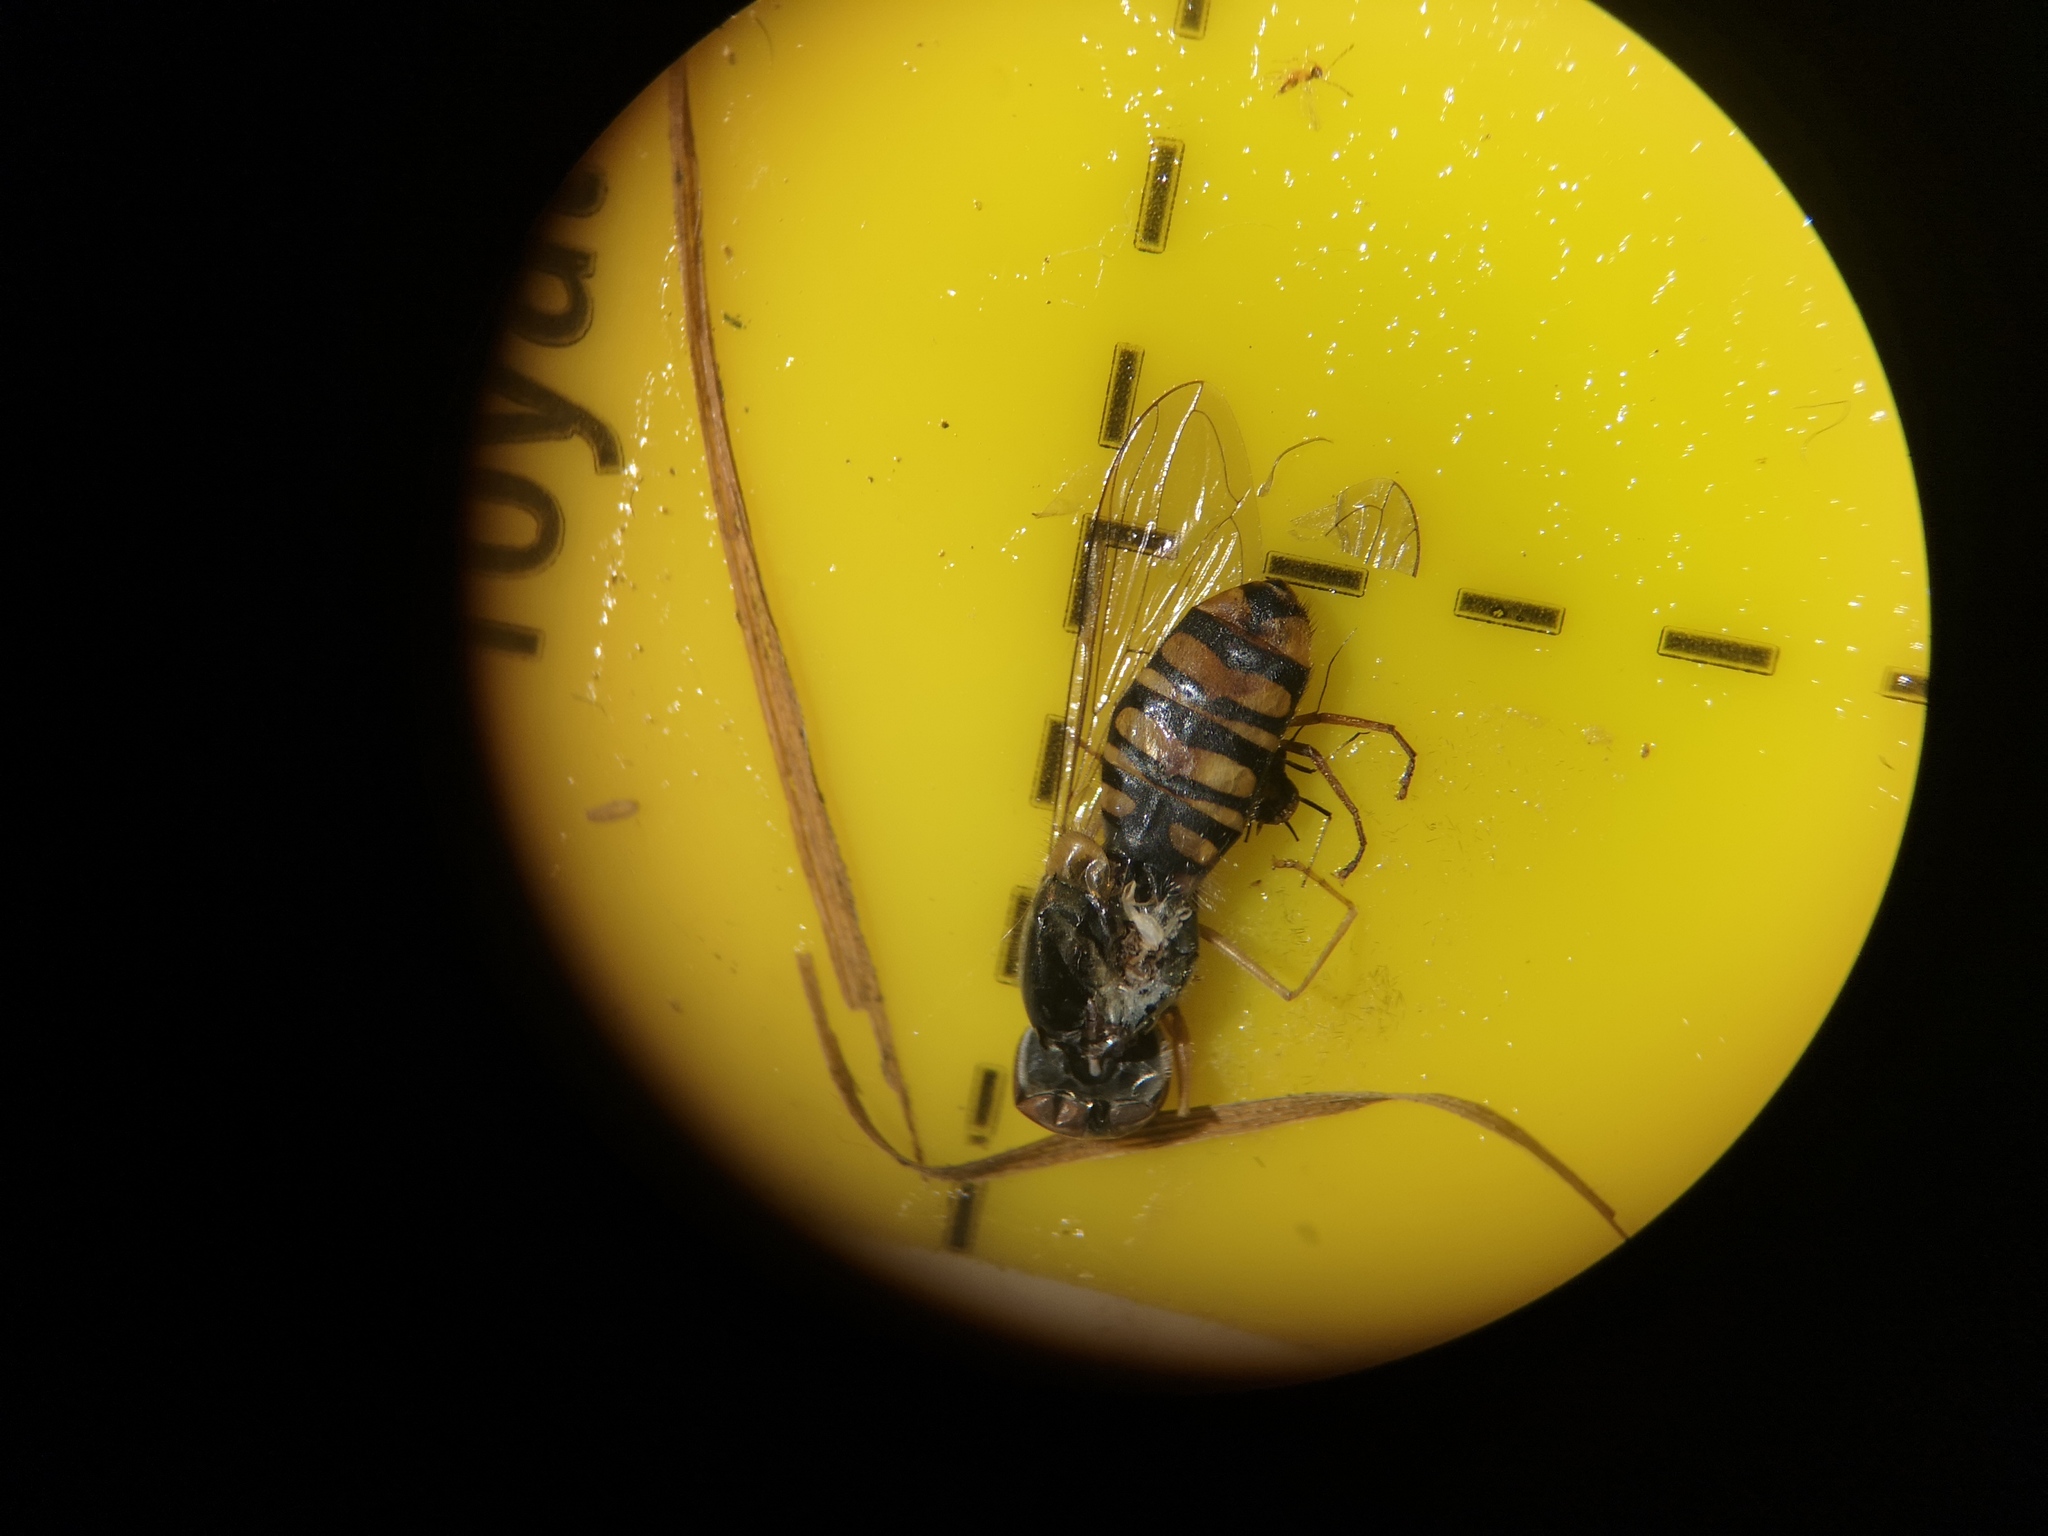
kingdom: Animalia
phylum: Arthropoda
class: Insecta
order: Diptera
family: Syrphidae
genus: Episyrphus
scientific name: Episyrphus balteatus
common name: Marmalade hoverfly
